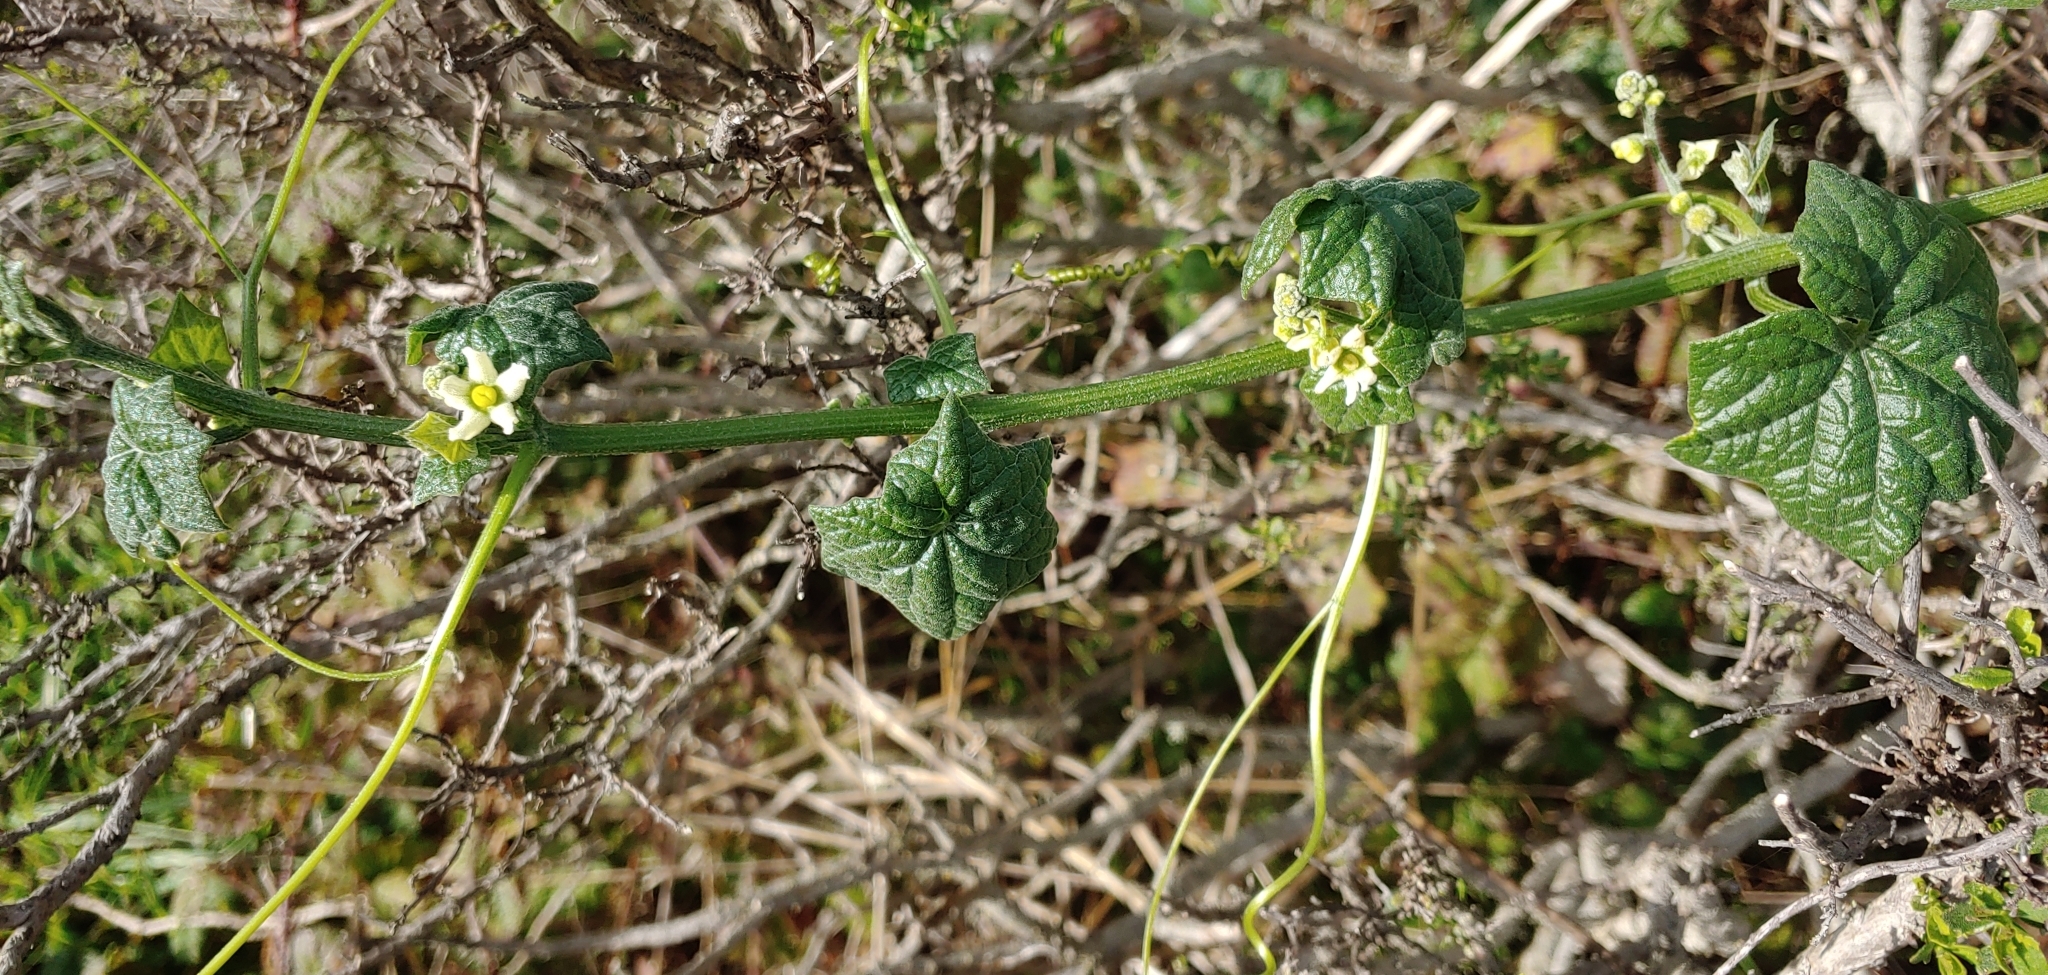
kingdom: Plantae
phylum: Tracheophyta
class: Magnoliopsida
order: Cucurbitales
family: Cucurbitaceae
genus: Marah
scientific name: Marah oregana
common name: Coastal manroot
